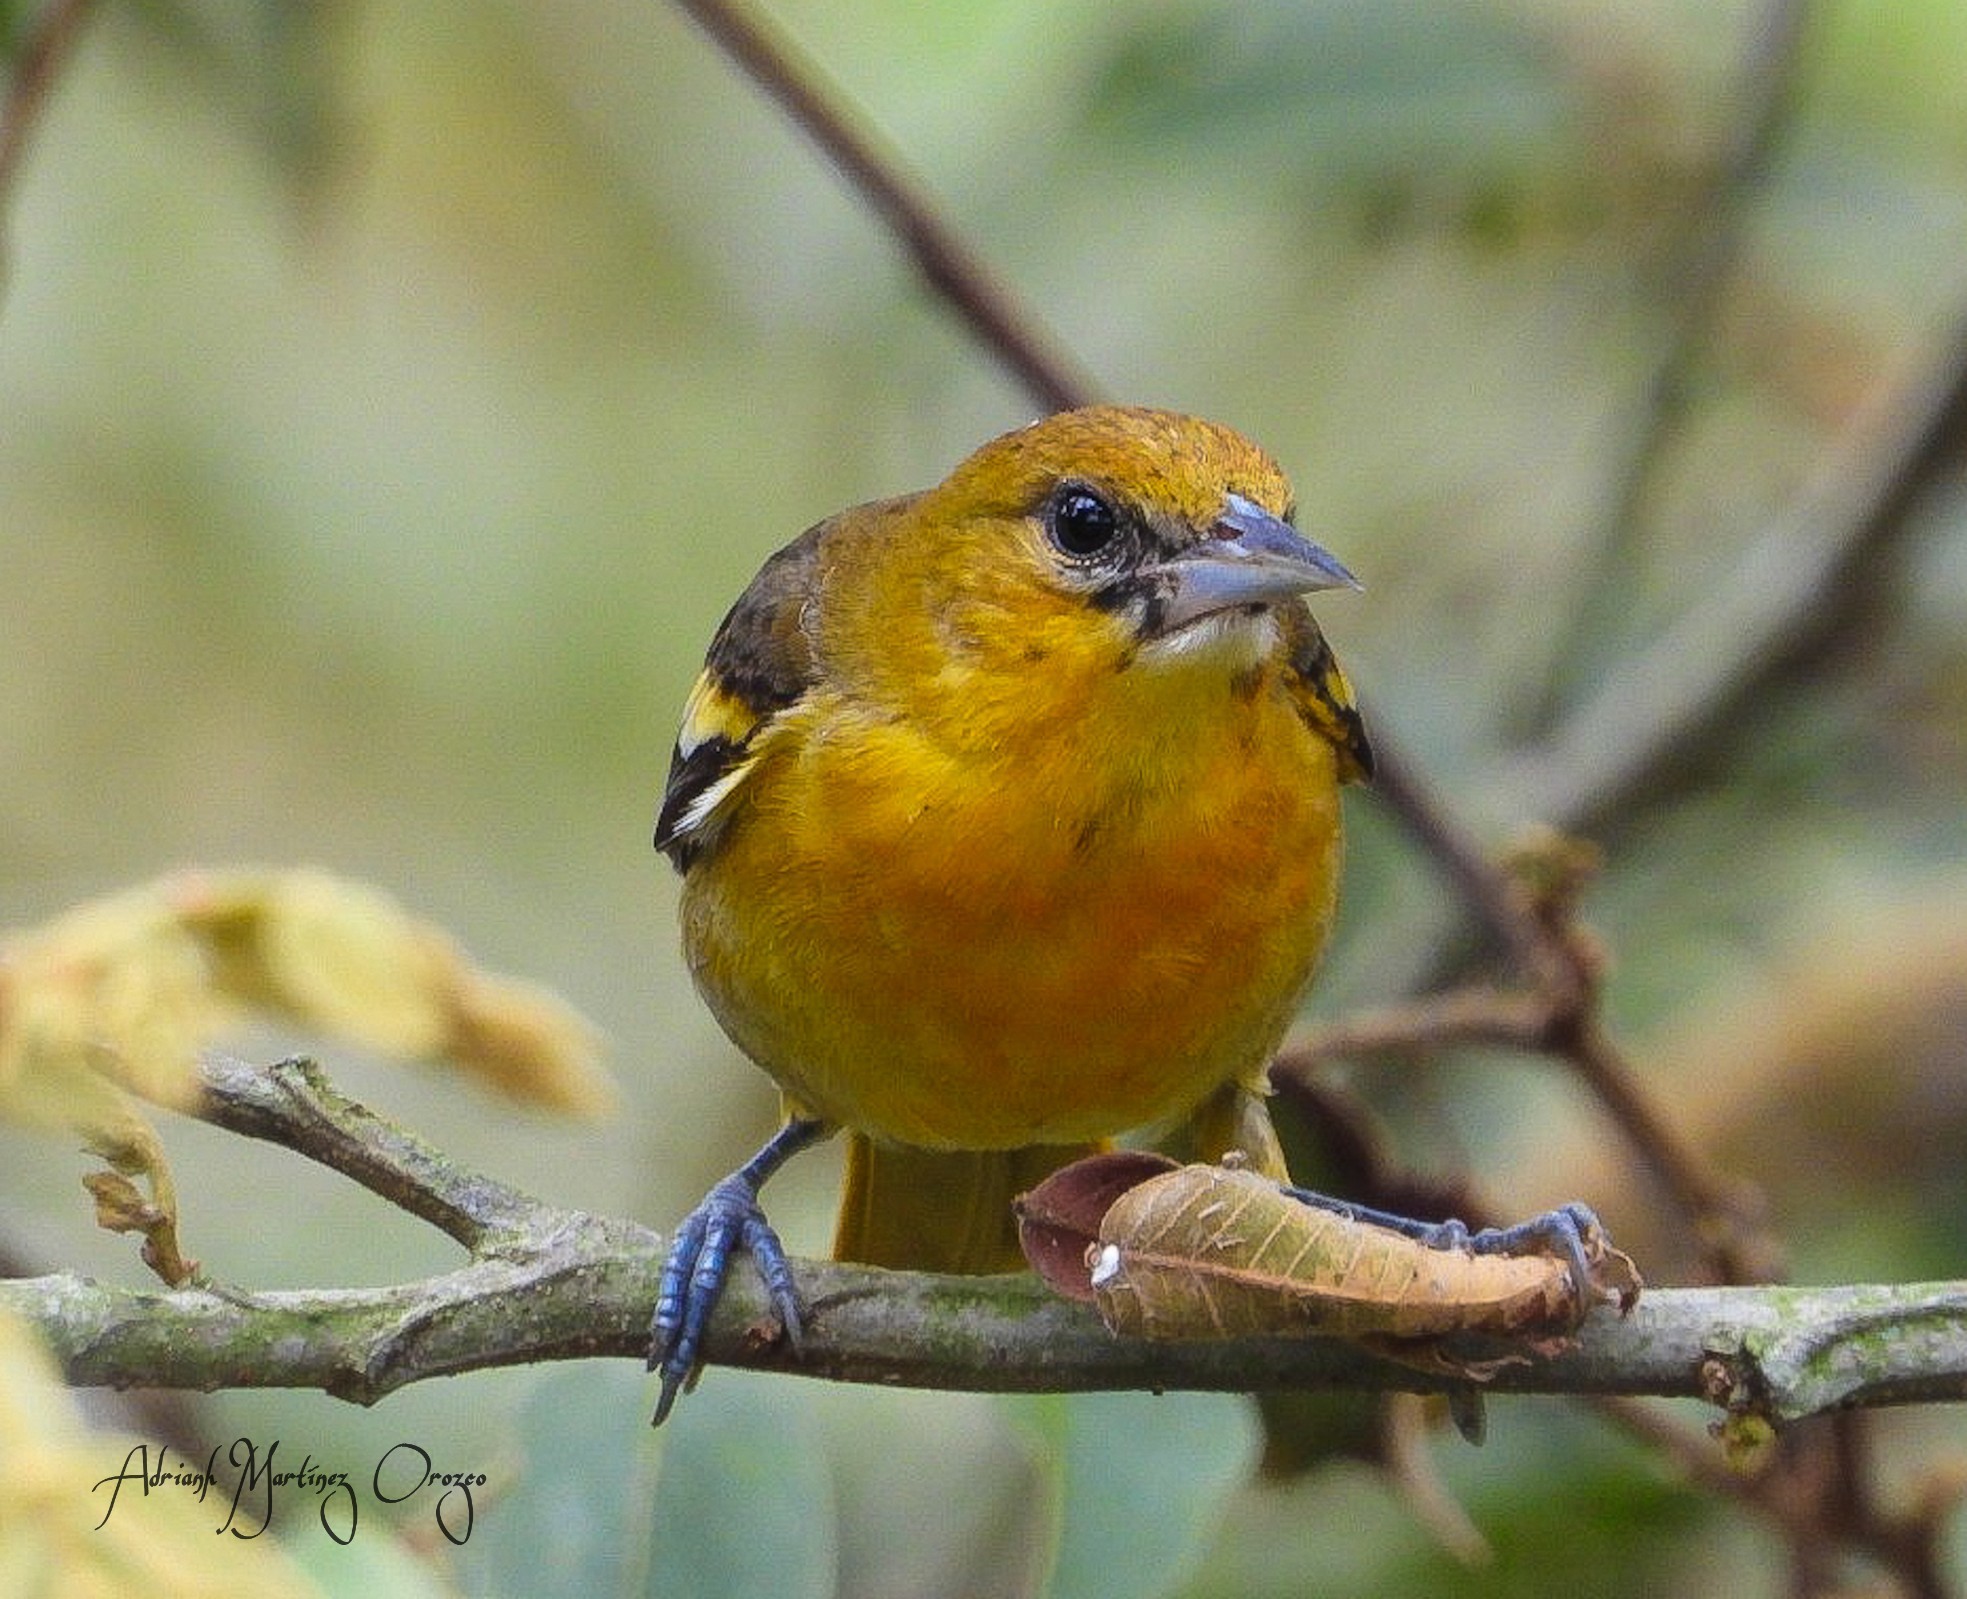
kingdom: Animalia
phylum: Chordata
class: Aves
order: Passeriformes
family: Icteridae
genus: Icterus
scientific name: Icterus galbula
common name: Baltimore oriole
